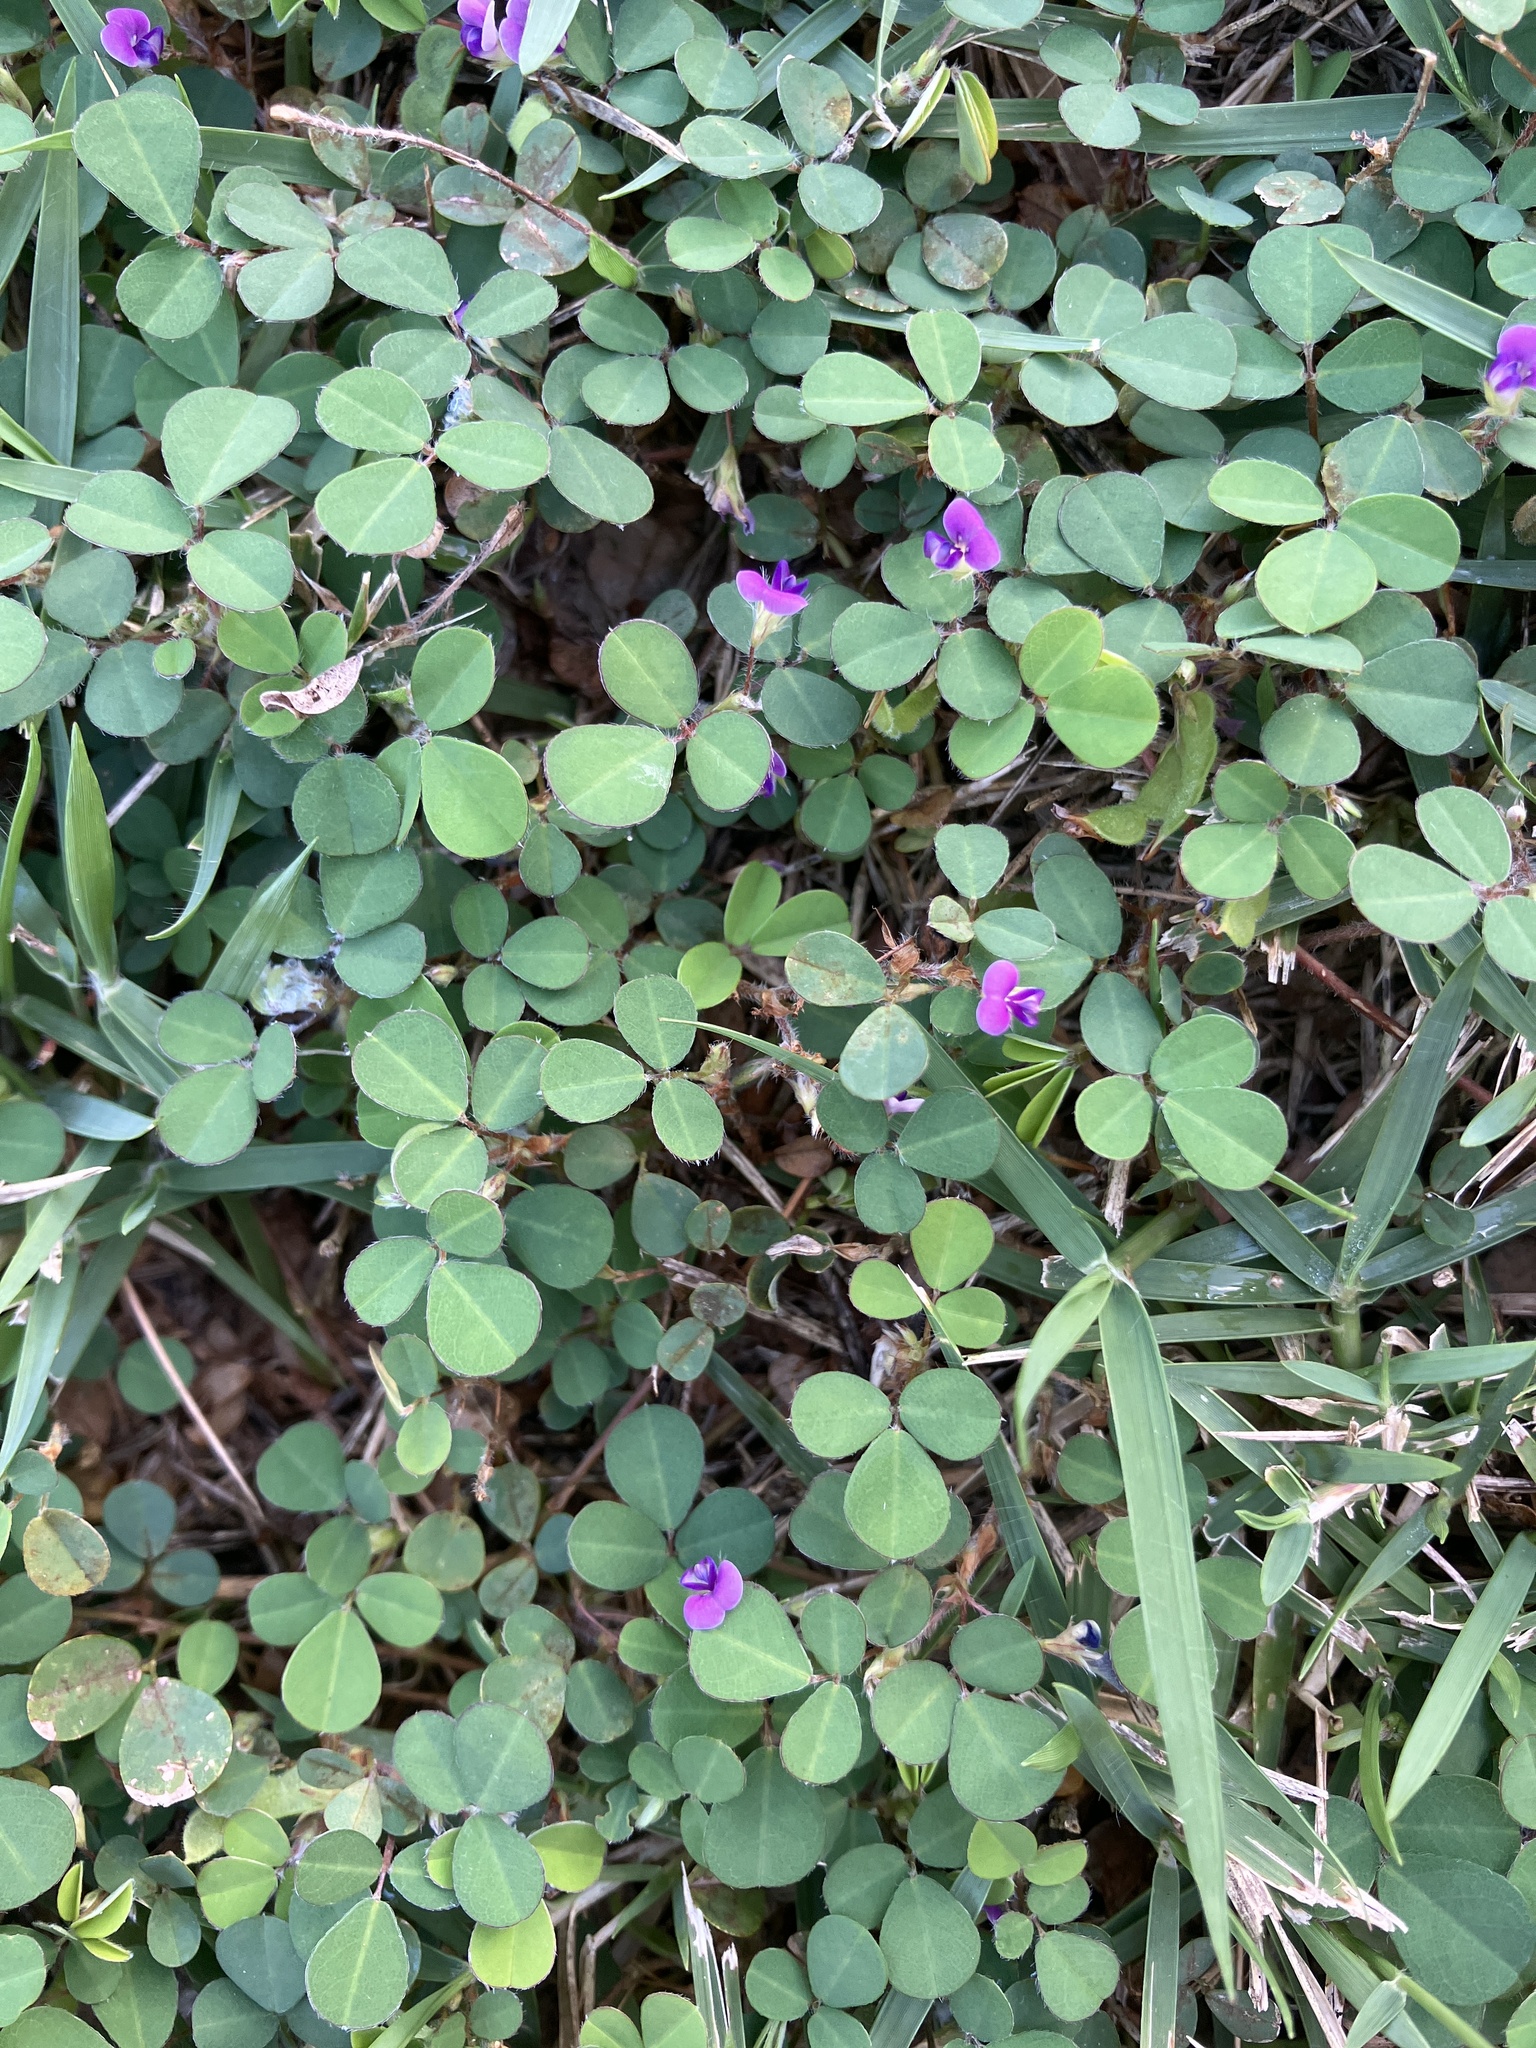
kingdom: Plantae
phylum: Tracheophyta
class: Magnoliopsida
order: Fabales
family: Fabaceae
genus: Grona
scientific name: Grona triflora
